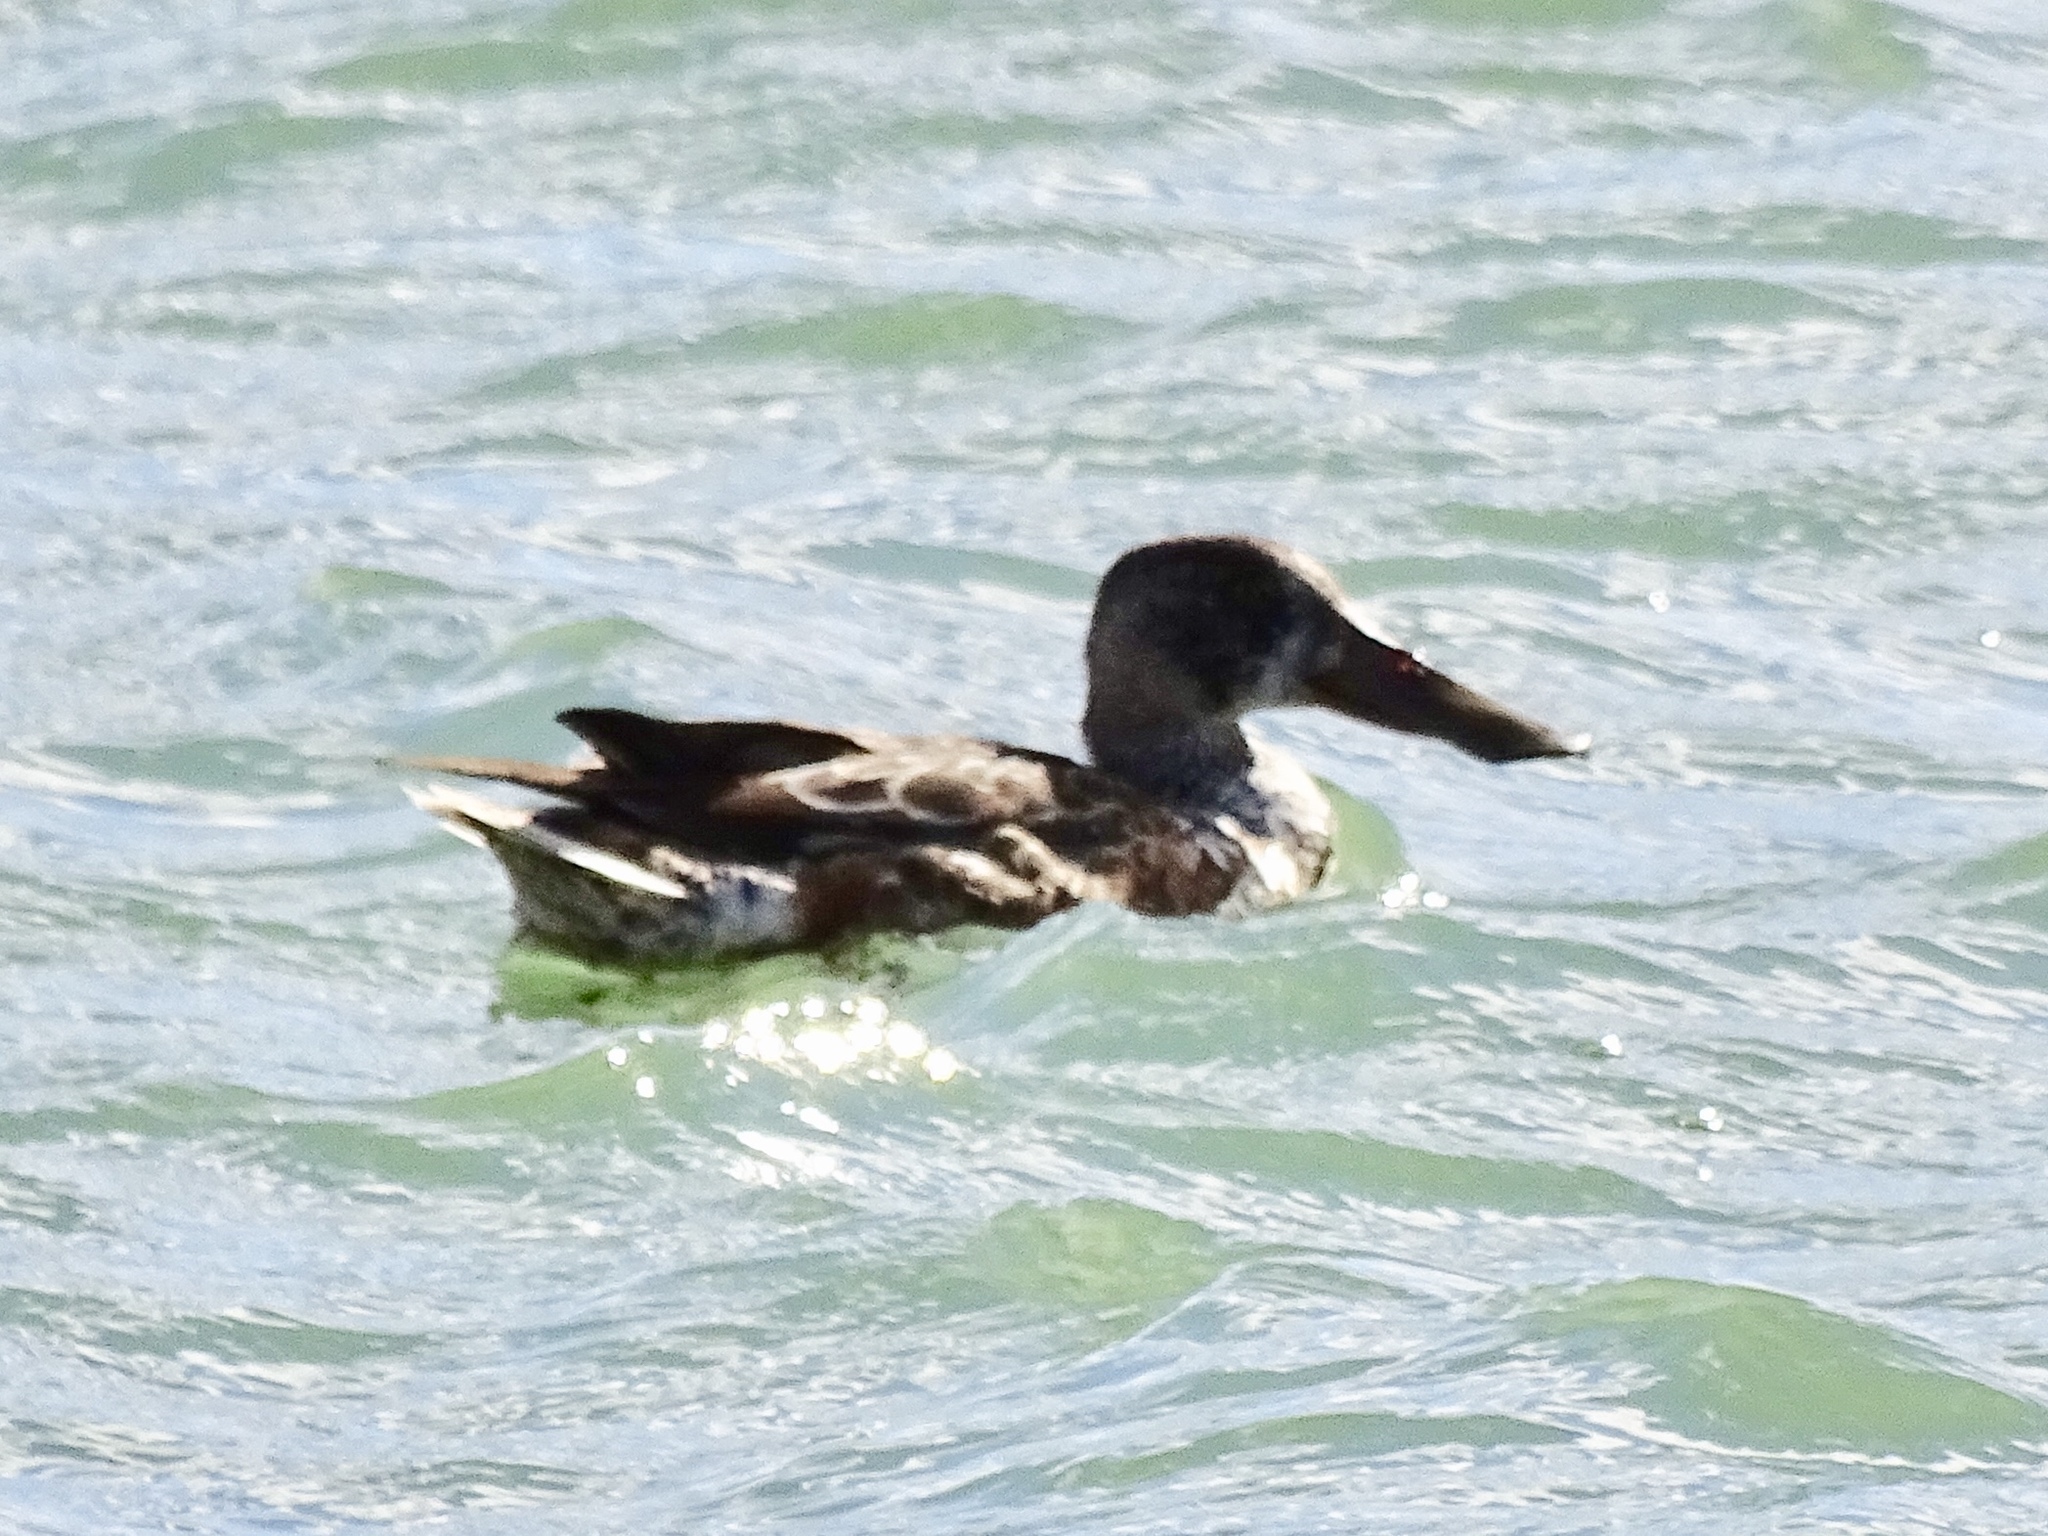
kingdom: Animalia
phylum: Chordata
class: Aves
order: Anseriformes
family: Anatidae
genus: Spatula
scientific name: Spatula clypeata
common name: Northern shoveler
